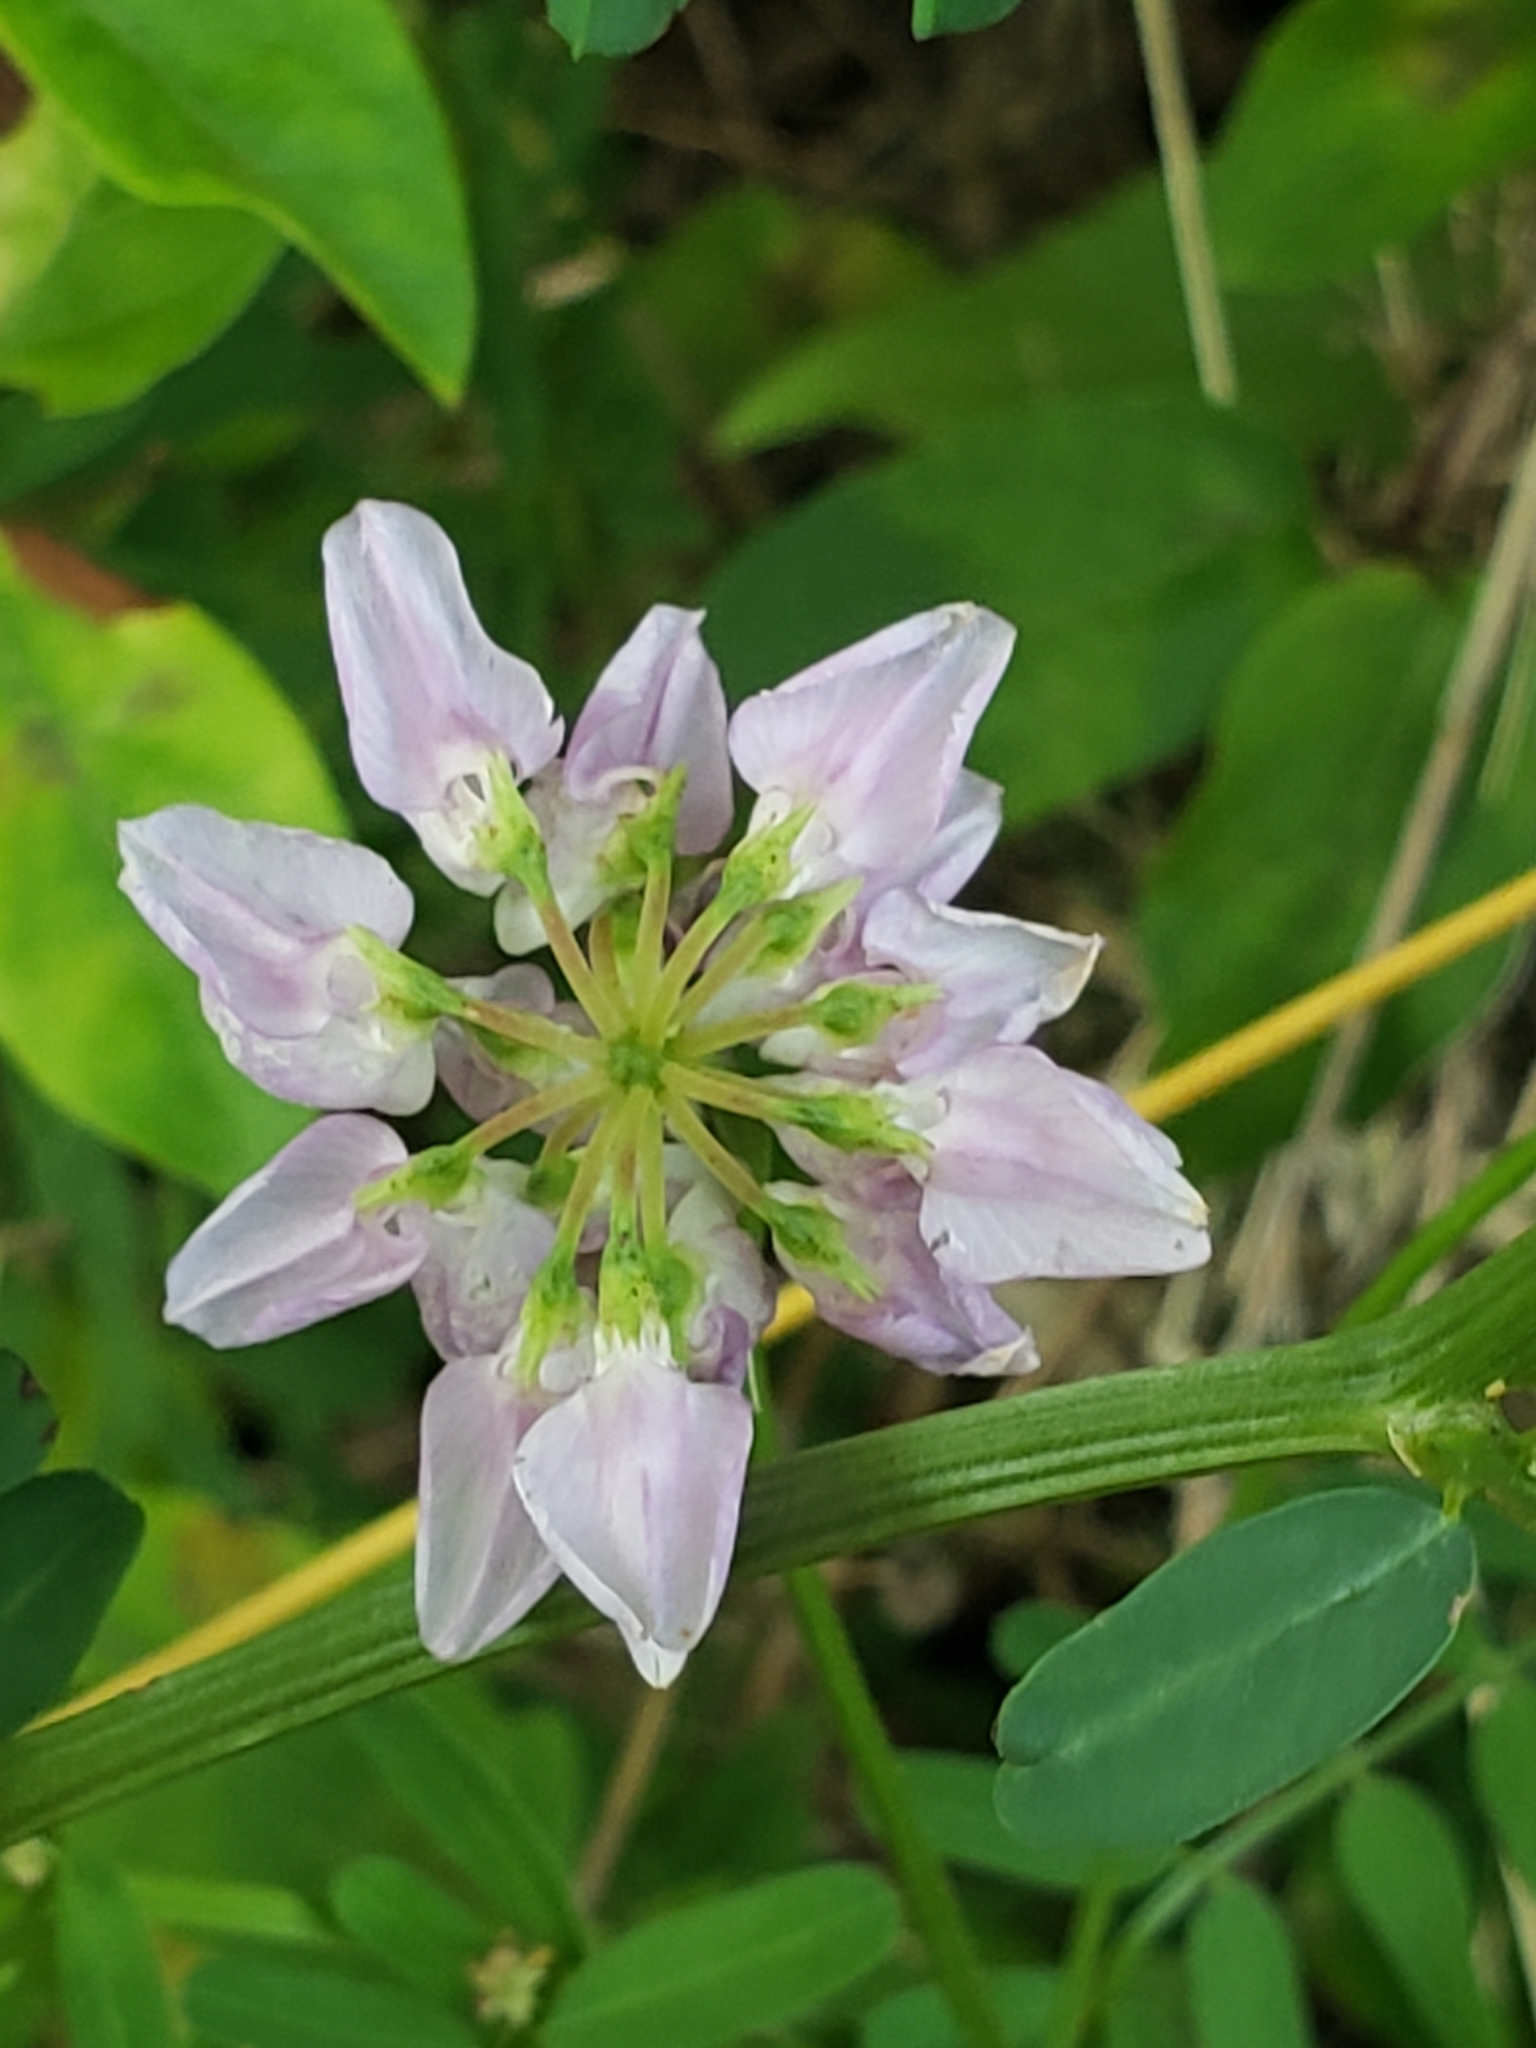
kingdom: Plantae
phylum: Tracheophyta
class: Magnoliopsida
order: Fabales
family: Fabaceae
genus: Coronilla
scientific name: Coronilla varia
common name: Crownvetch
